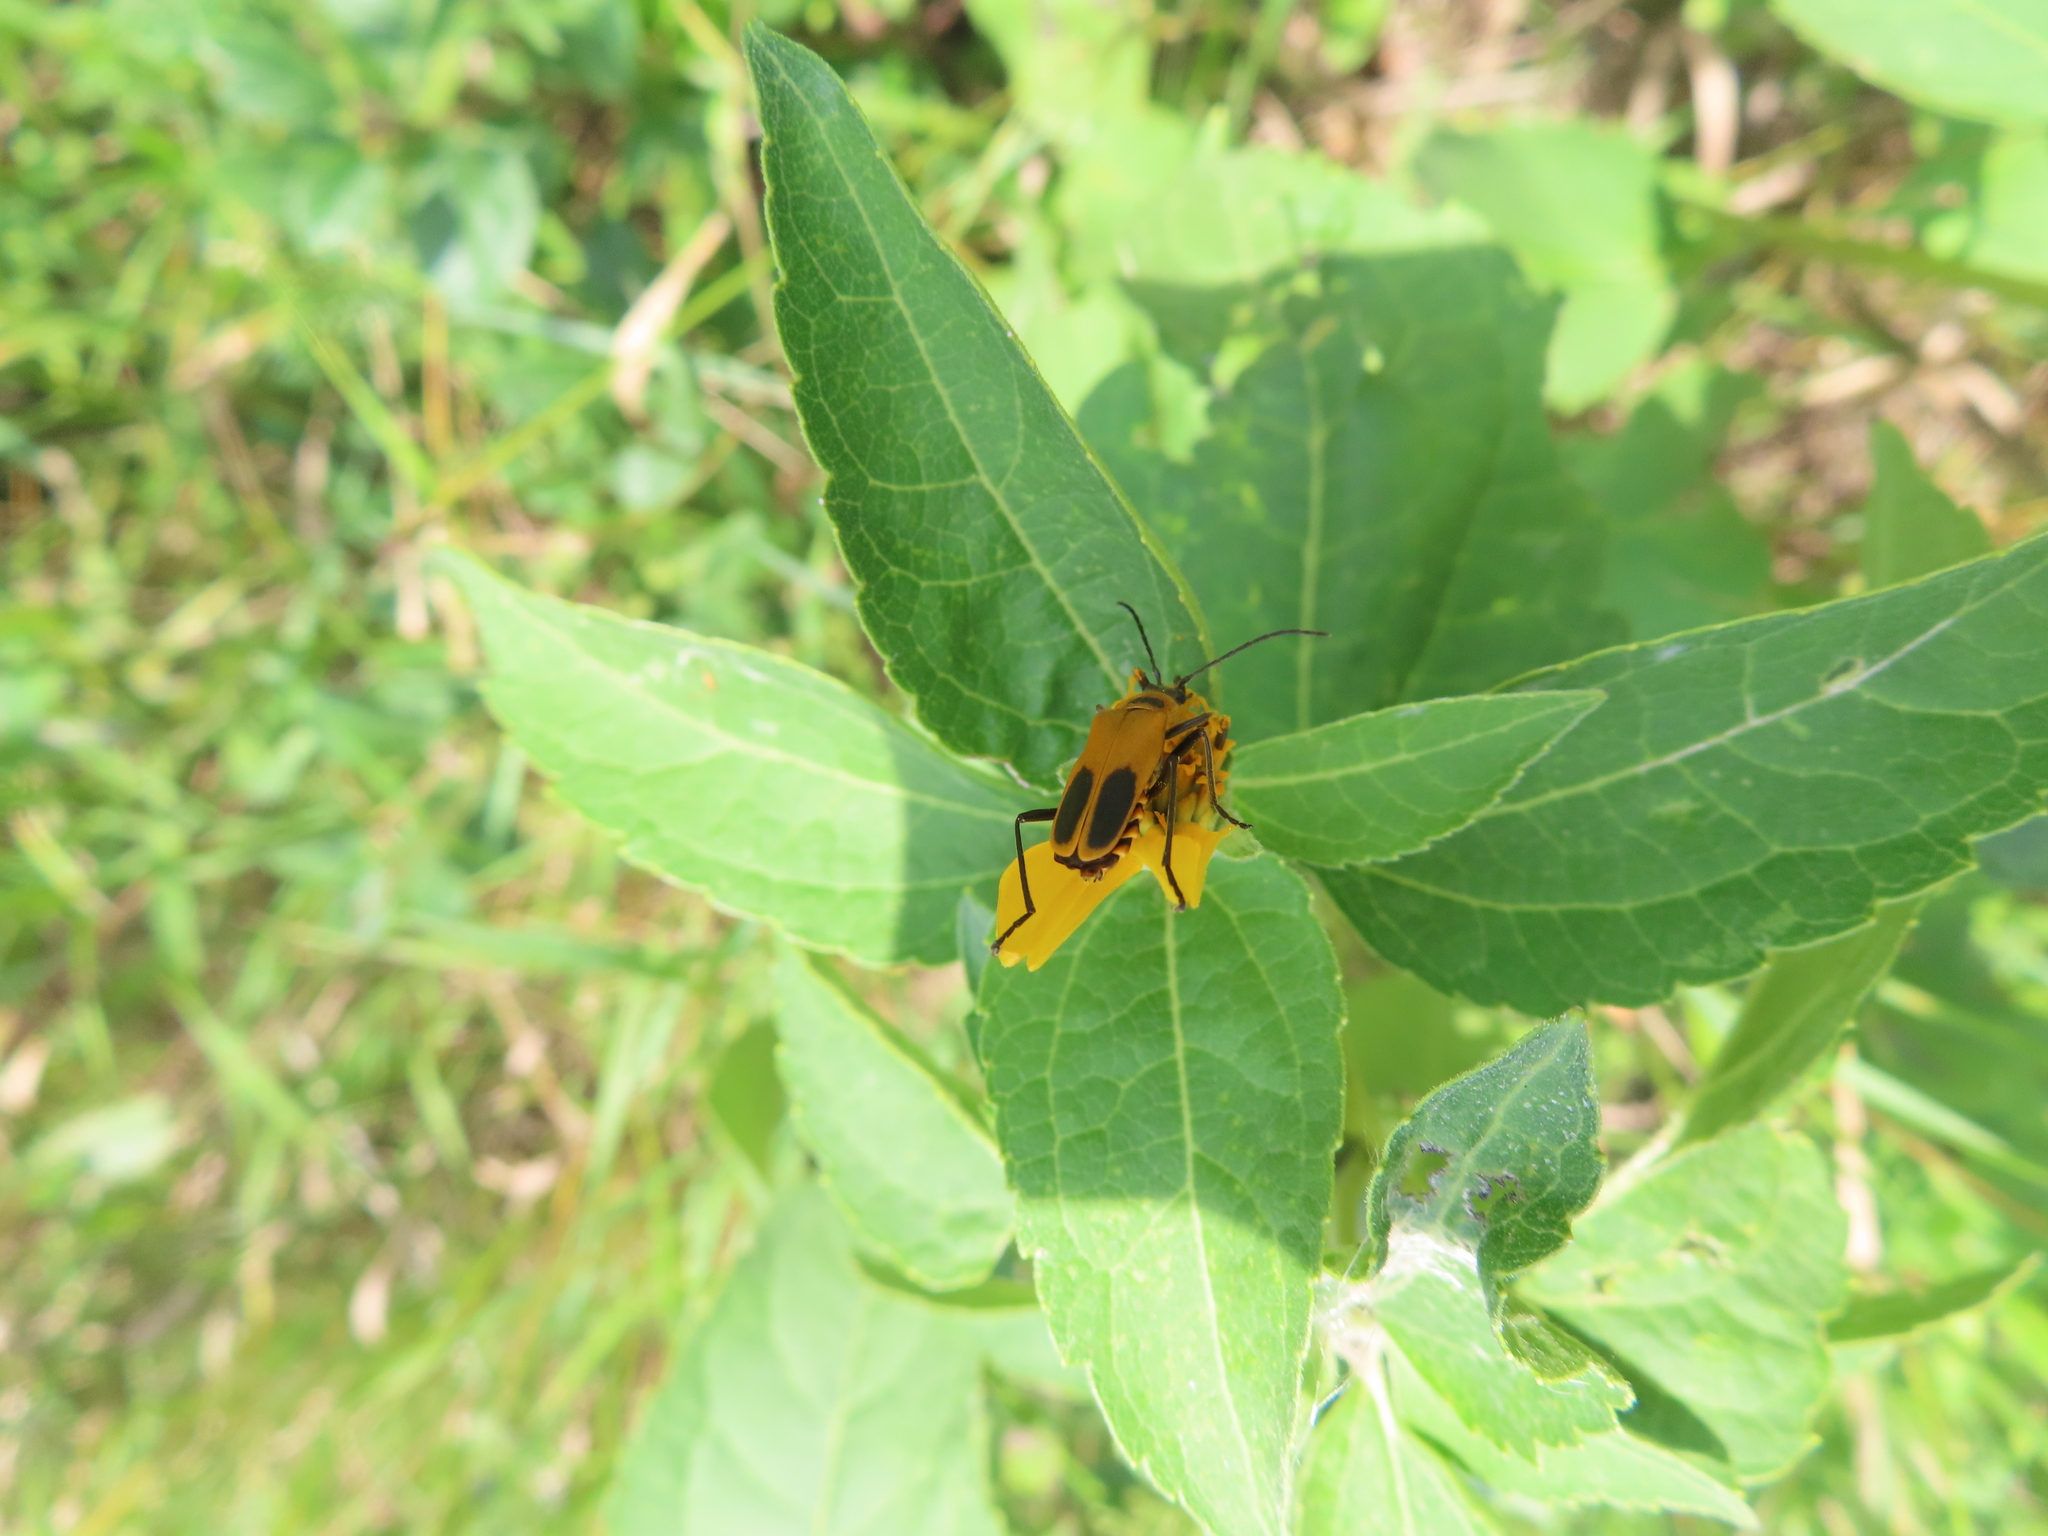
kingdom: Animalia
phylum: Arthropoda
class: Insecta
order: Coleoptera
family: Cantharidae
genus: Chauliognathus
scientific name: Chauliognathus pensylvanicus
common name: Goldenrod soldier beetle
